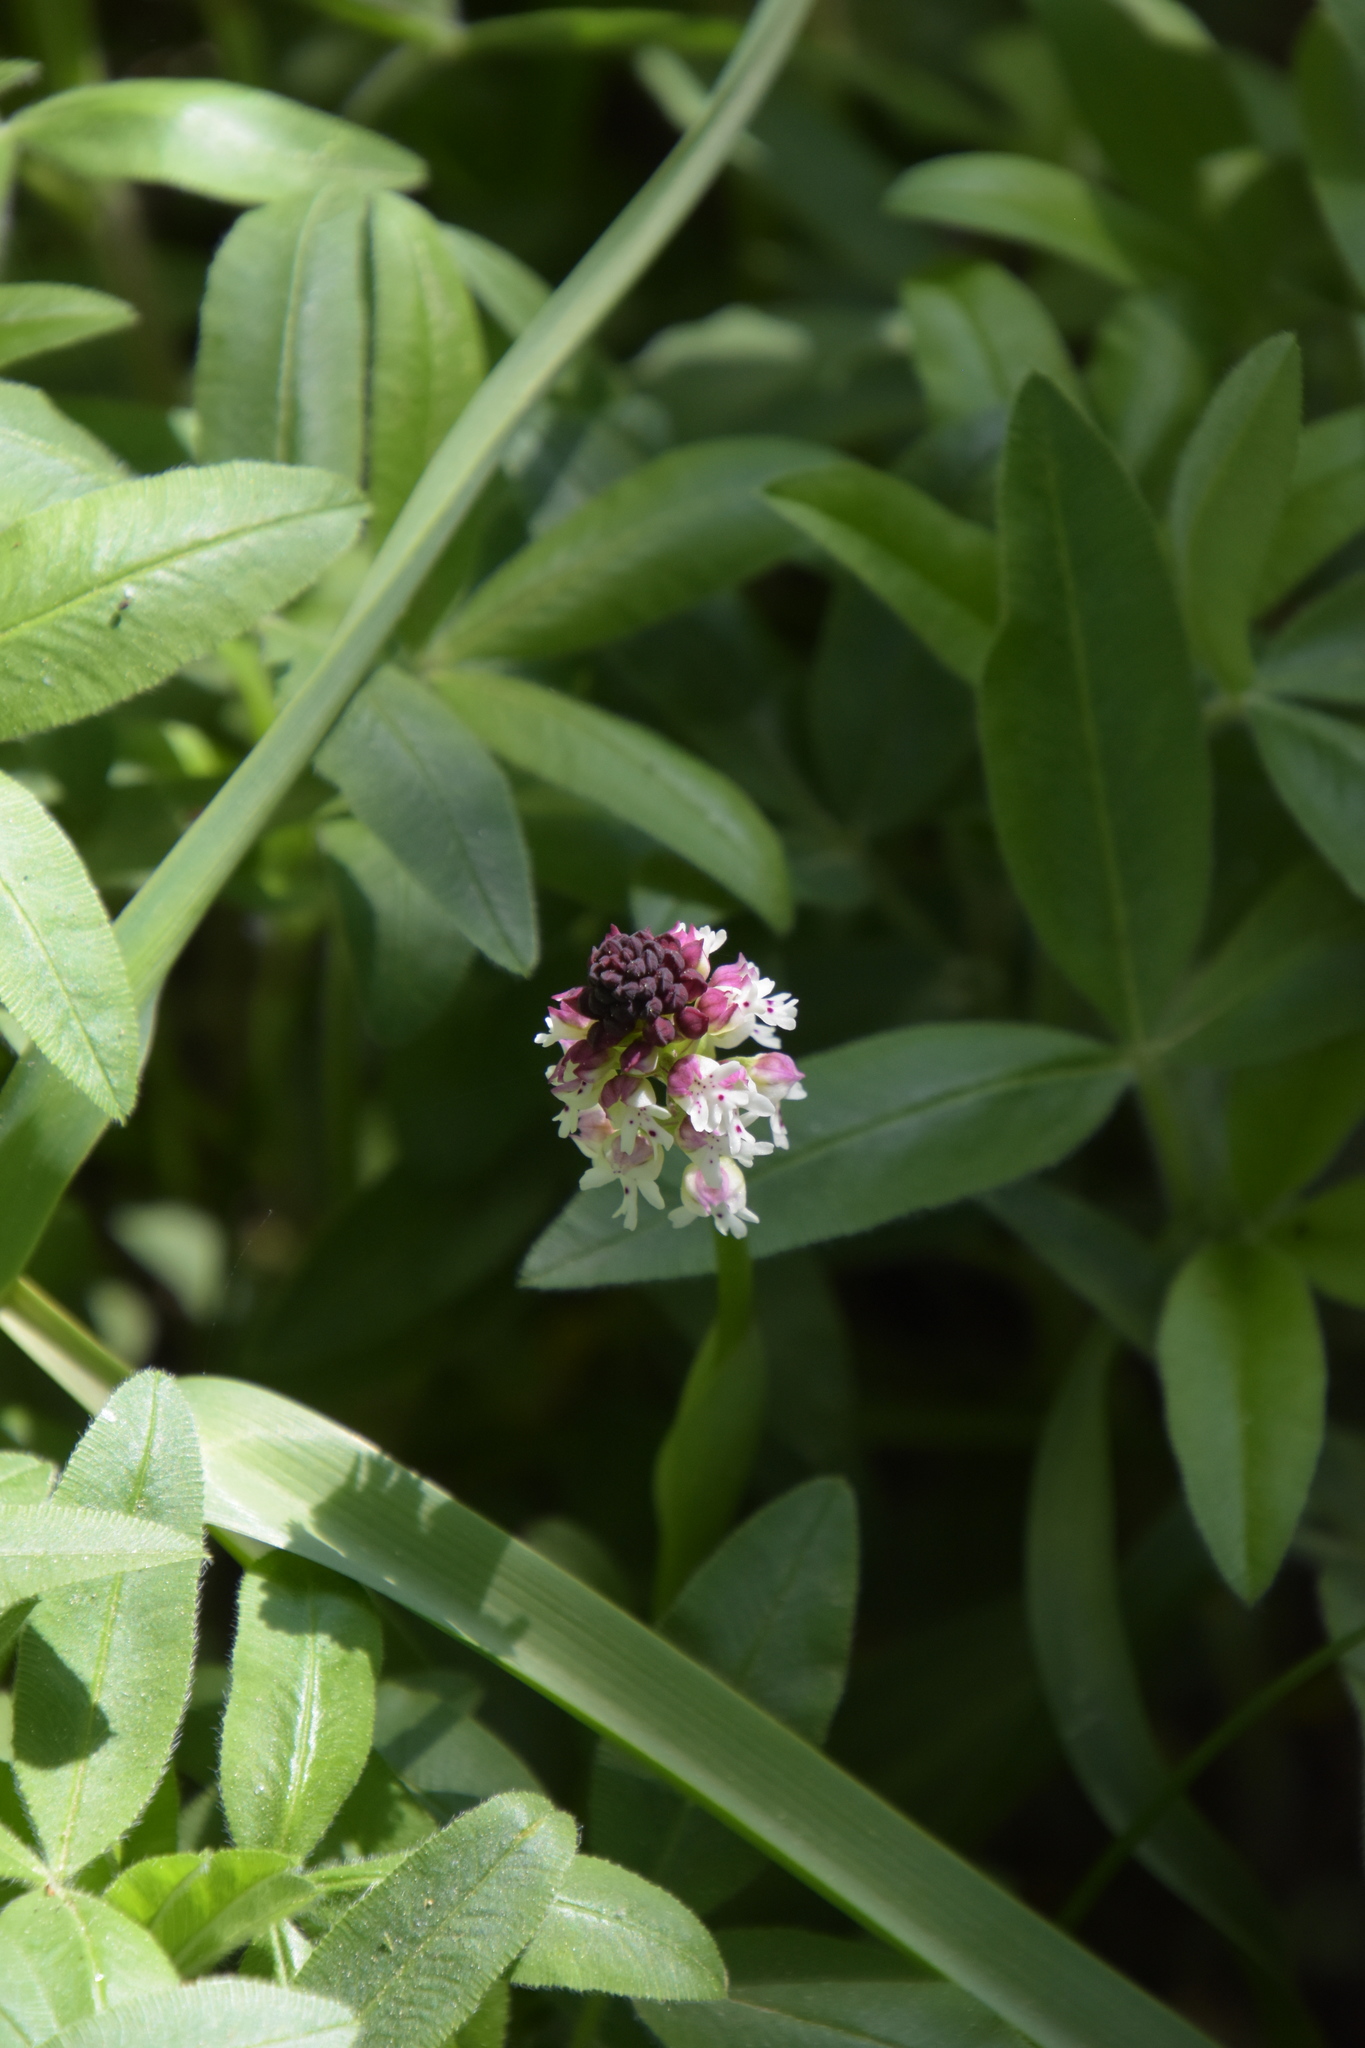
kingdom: Plantae
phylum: Tracheophyta
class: Liliopsida
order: Asparagales
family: Orchidaceae
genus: Neotinea
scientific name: Neotinea ustulata
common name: Burnt orchid
